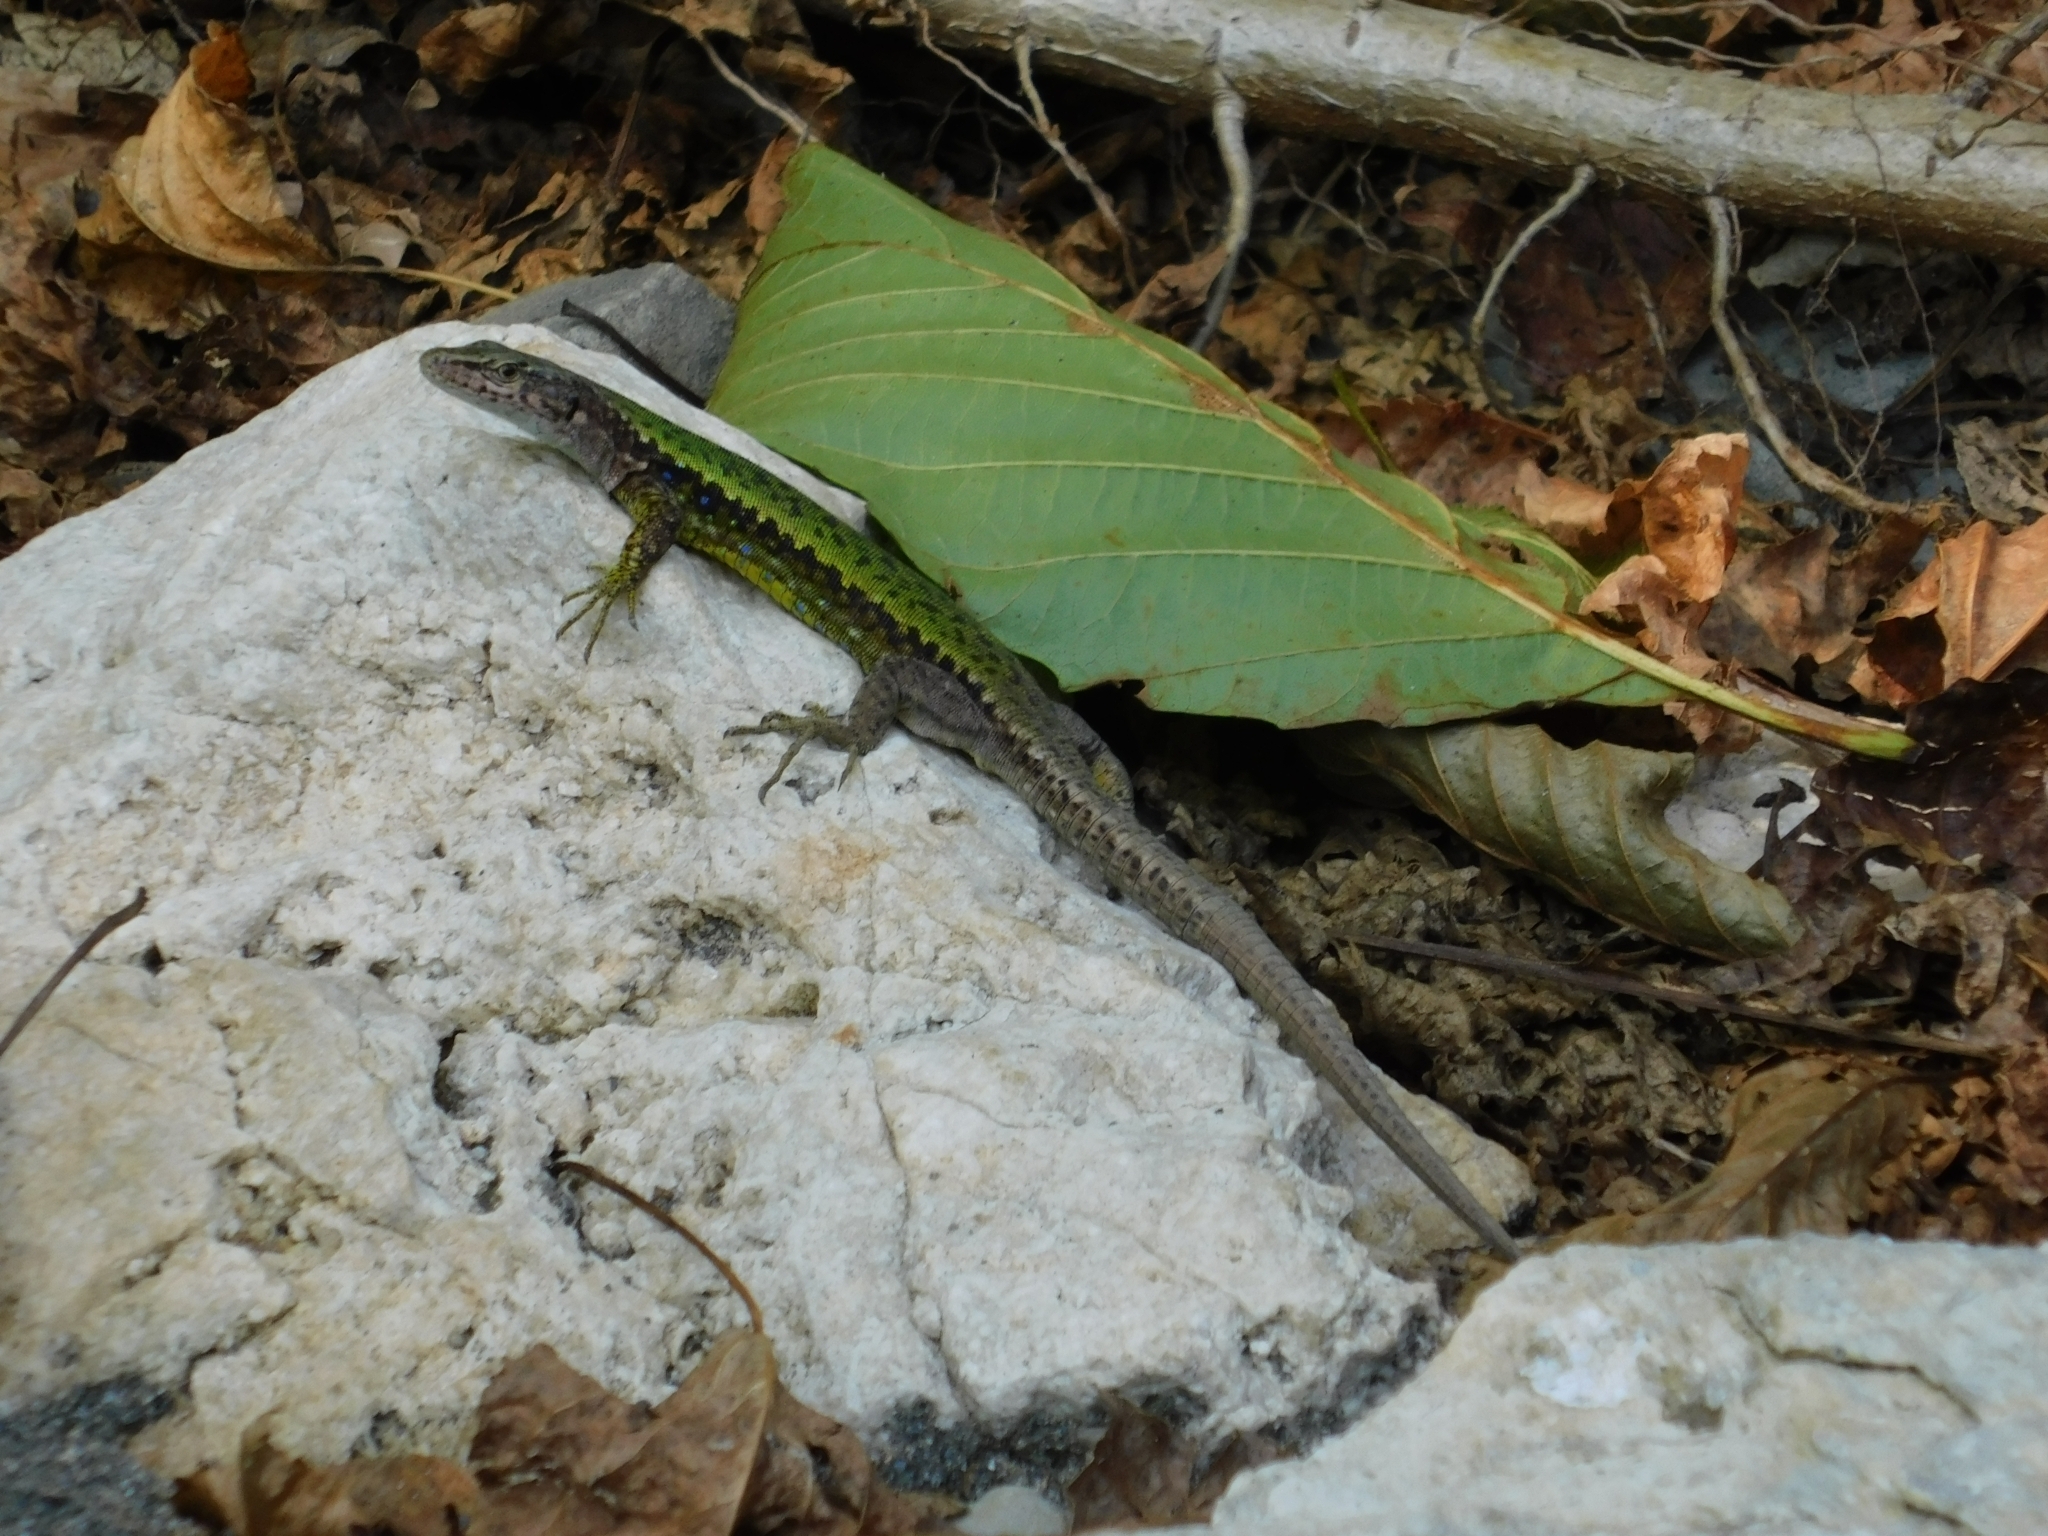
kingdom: Animalia
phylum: Chordata
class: Squamata
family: Lacertidae
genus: Darevskia
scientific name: Darevskia brauneri
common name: Brauner's rock lizard
